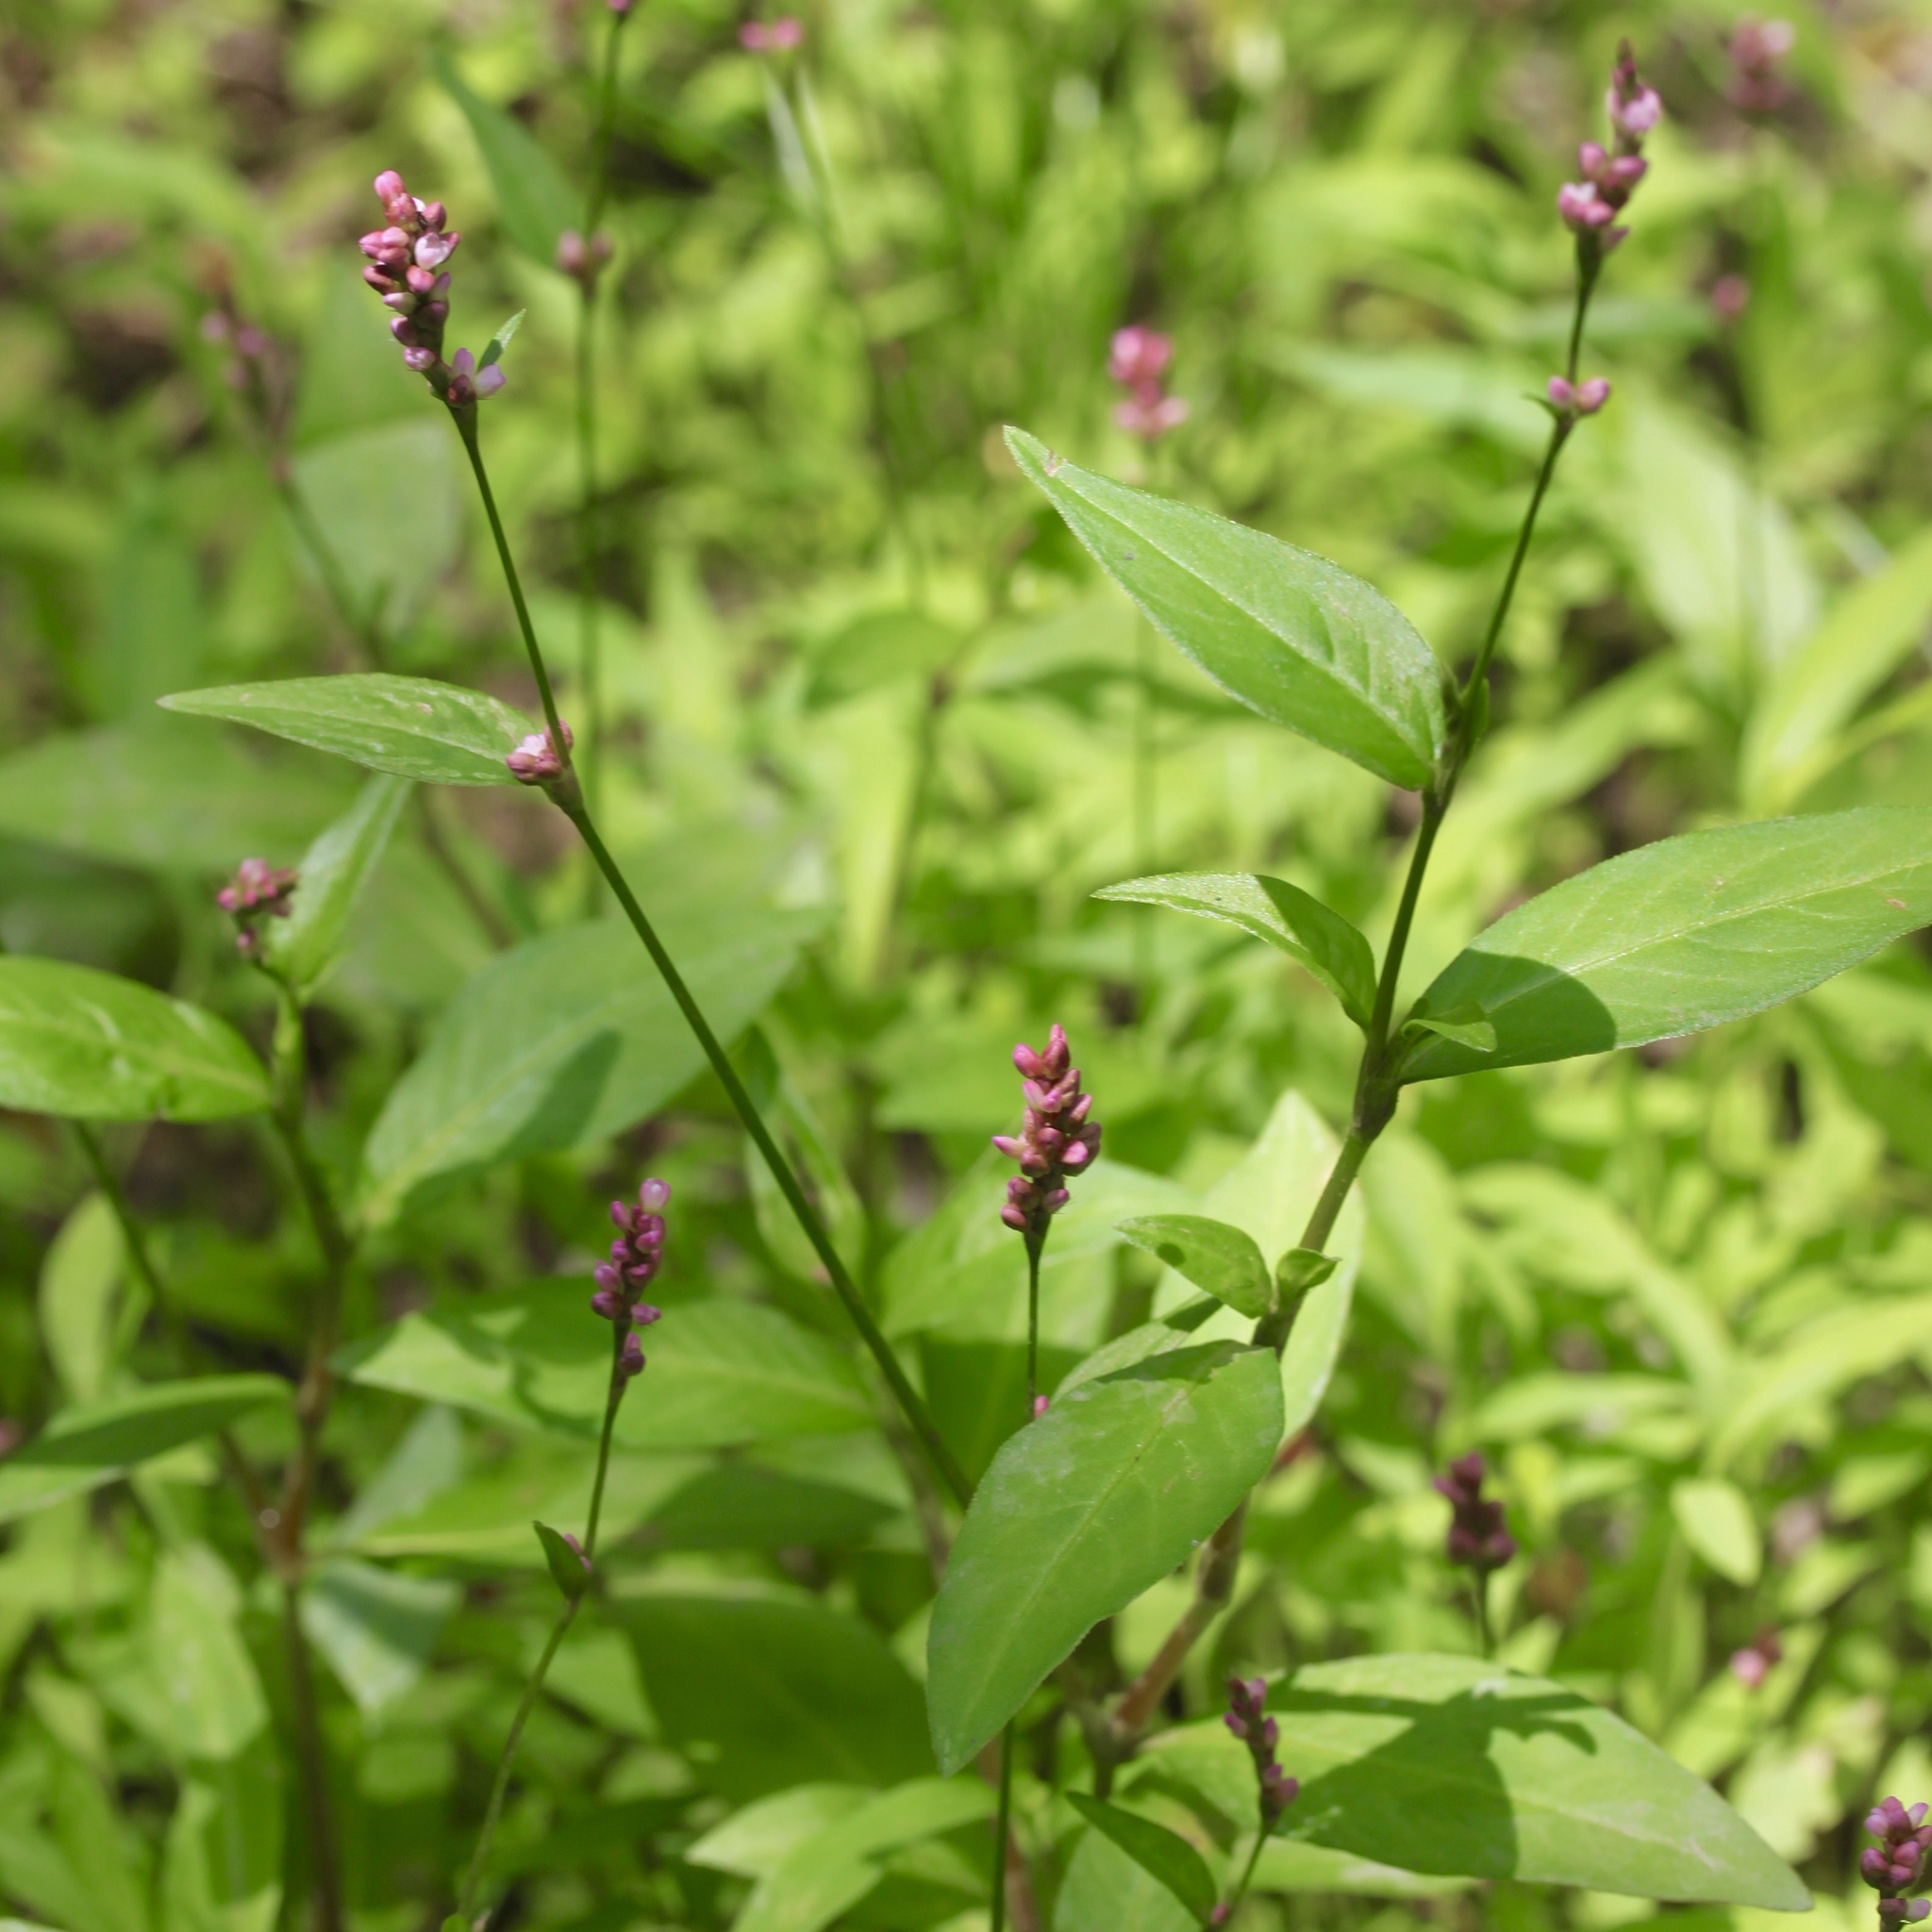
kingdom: Plantae
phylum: Tracheophyta
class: Magnoliopsida
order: Caryophyllales
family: Polygonaceae
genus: Persicaria
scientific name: Persicaria longiseta
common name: Bristly lady's-thumb
